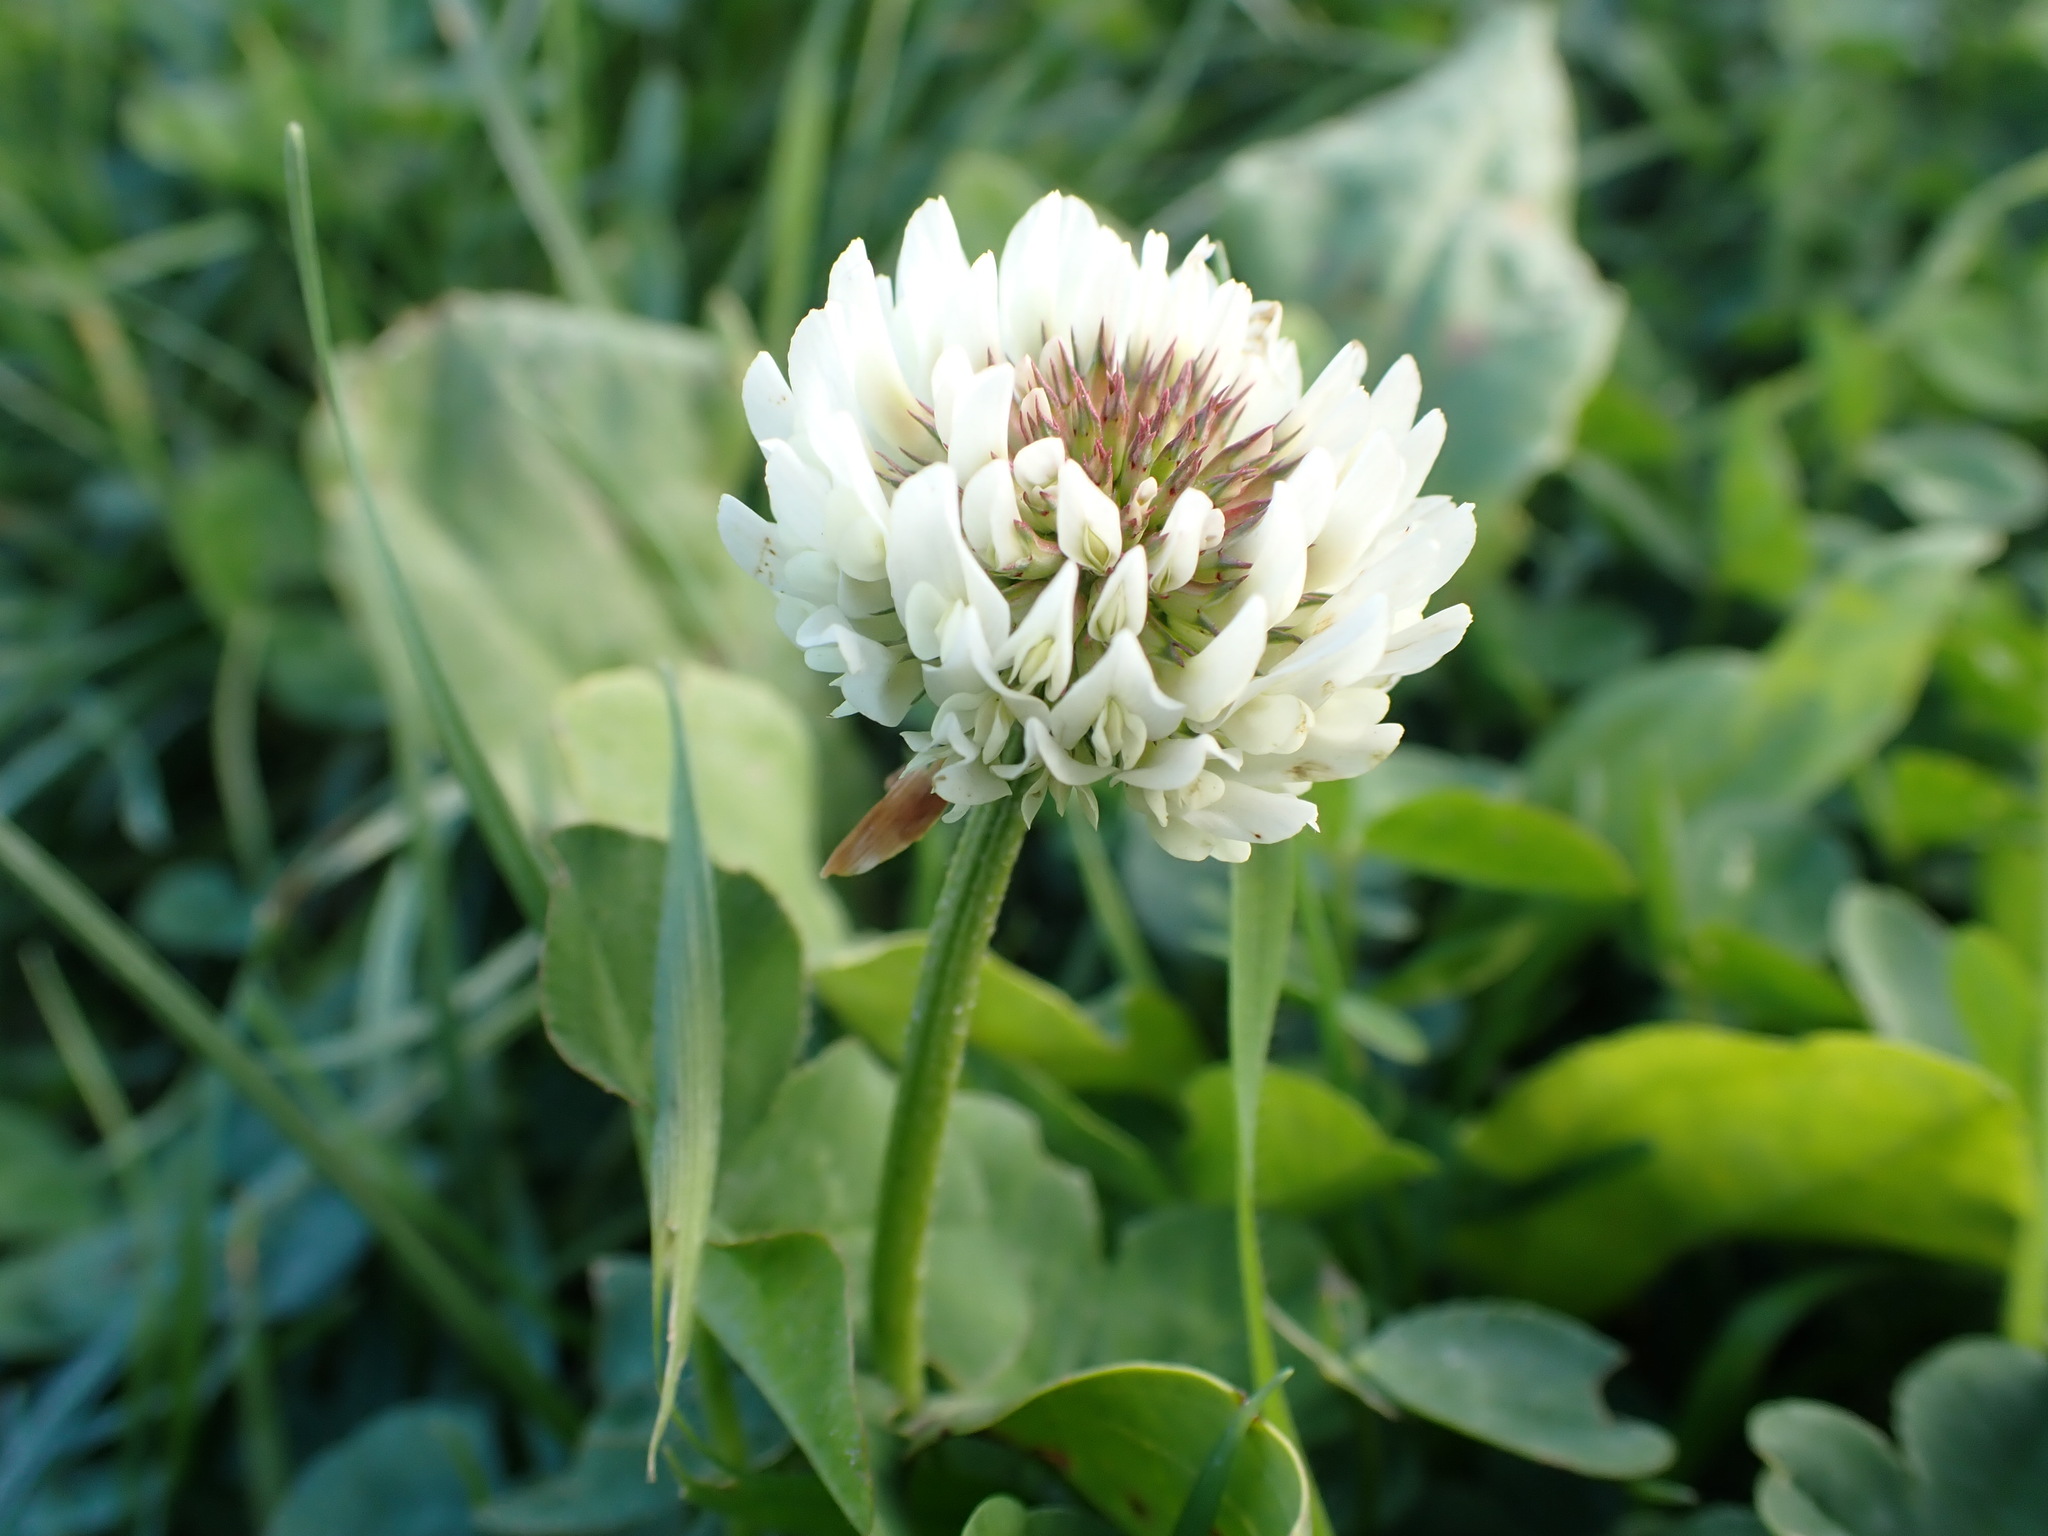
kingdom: Plantae
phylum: Tracheophyta
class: Magnoliopsida
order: Fabales
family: Fabaceae
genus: Trifolium
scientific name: Trifolium repens
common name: White clover
